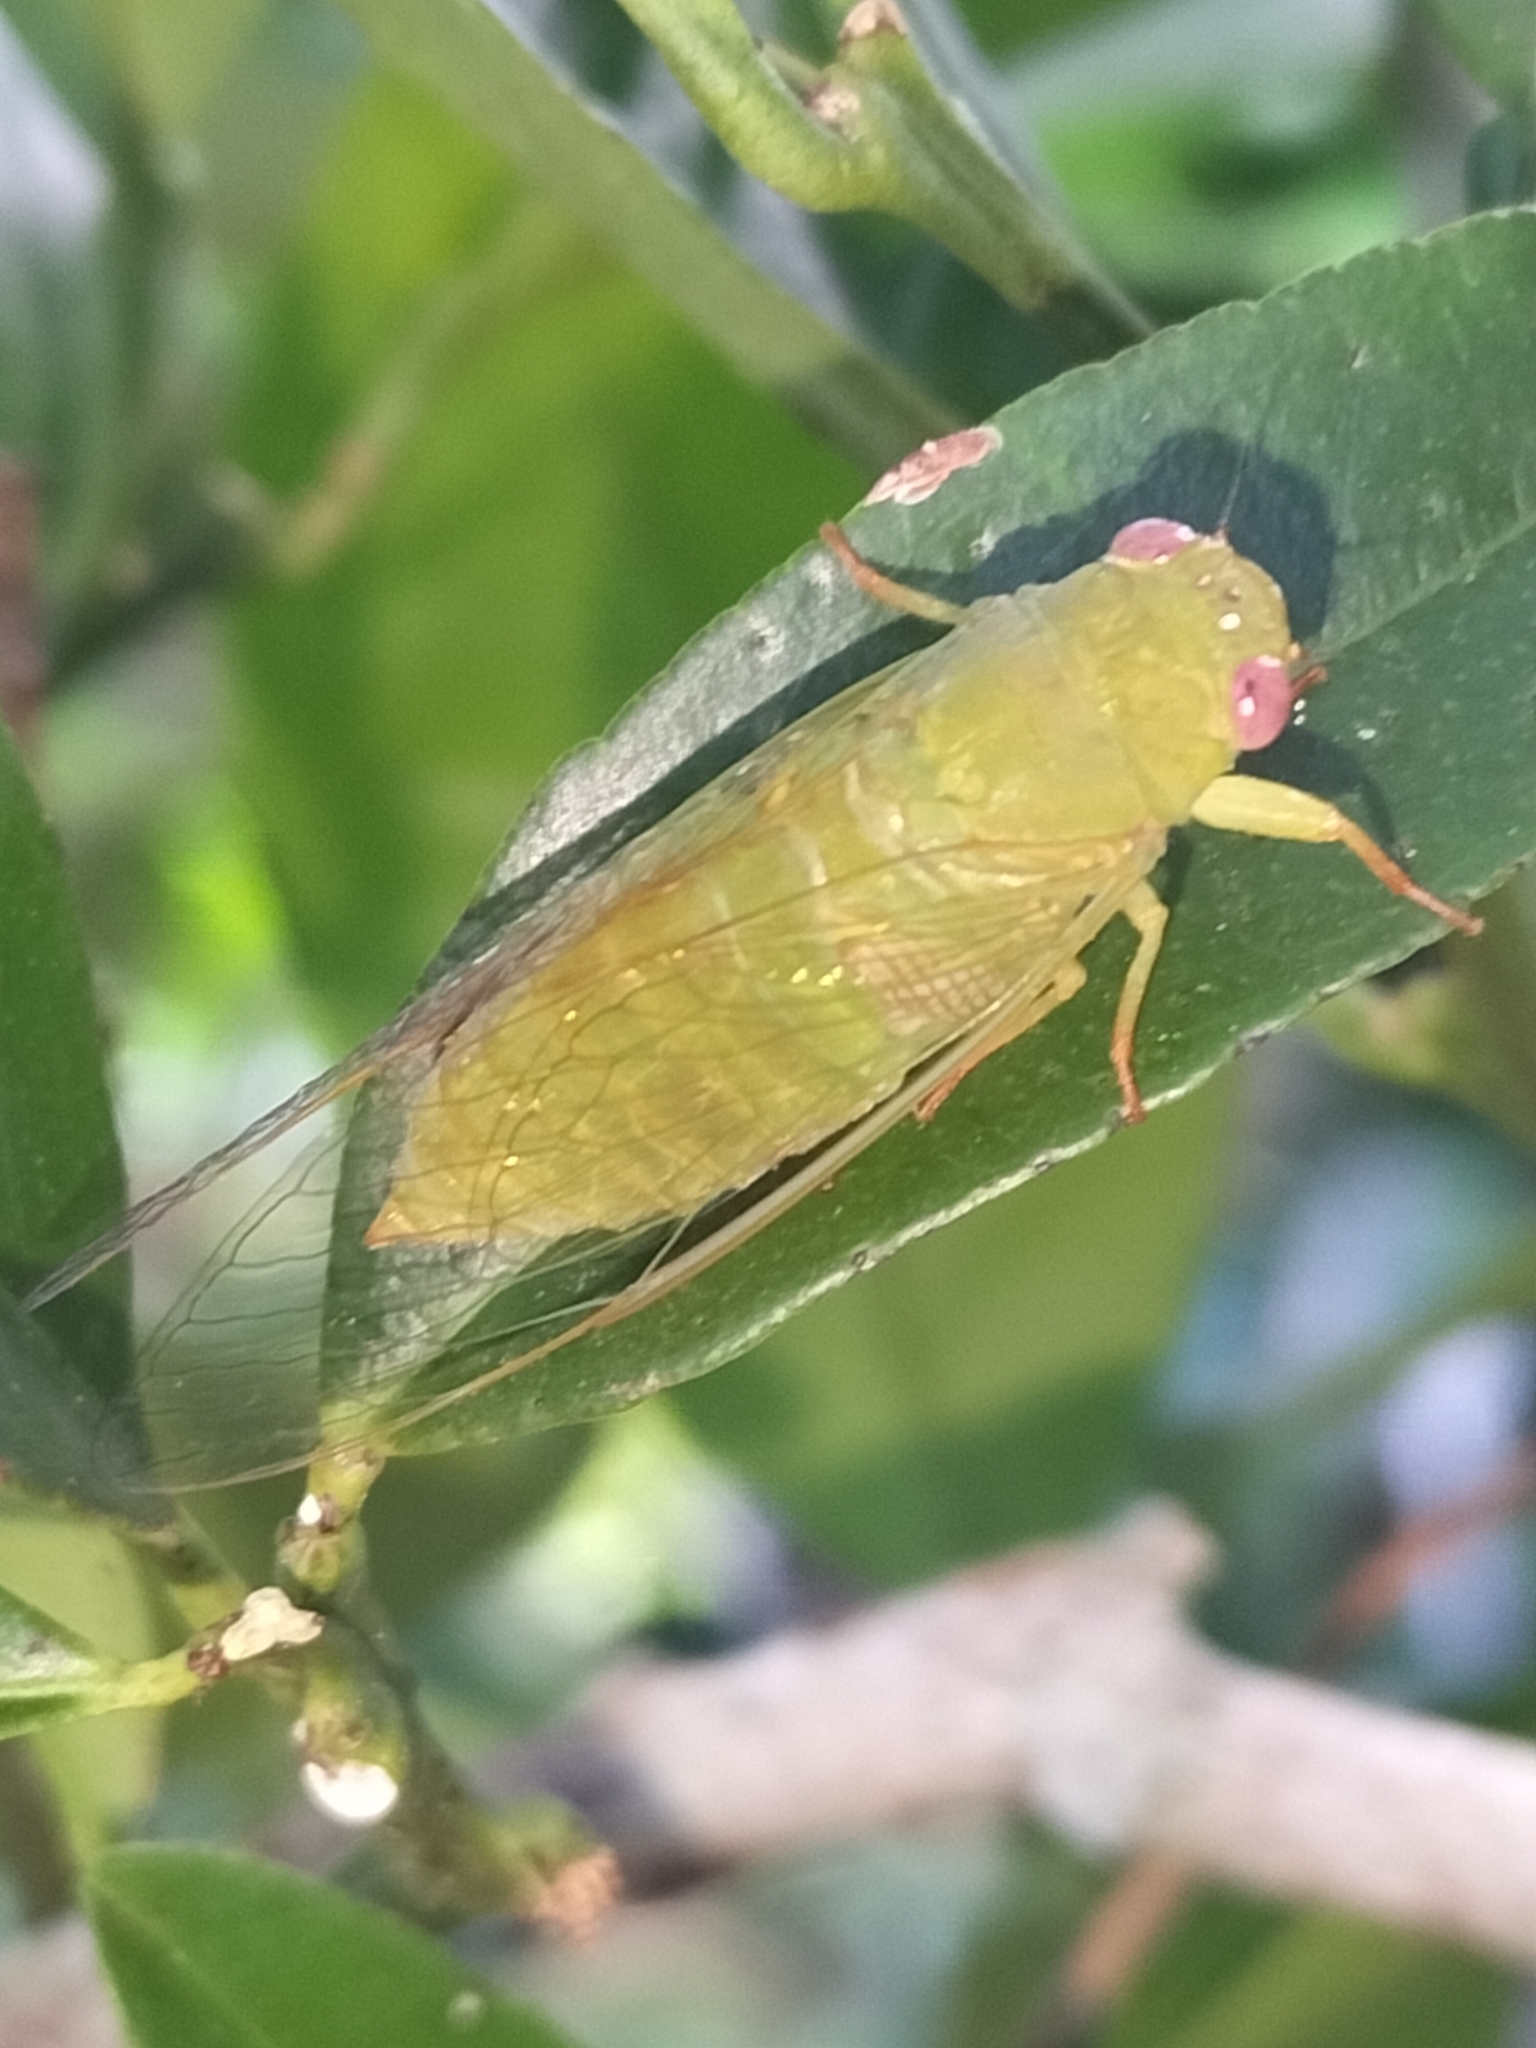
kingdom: Animalia
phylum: Arthropoda
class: Insecta
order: Hemiptera
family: Cicadidae
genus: Gymnotympana
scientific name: Gymnotympana varicolor
